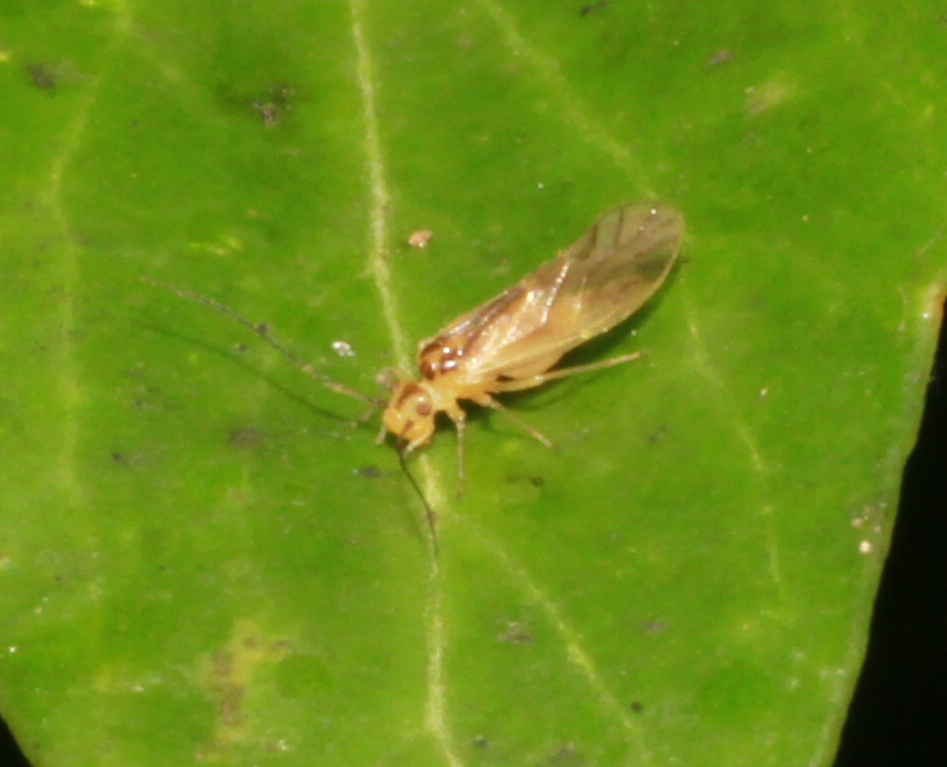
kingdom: Animalia
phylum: Arthropoda
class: Insecta
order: Psocodea
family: Caeciliusidae
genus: Valenzuela
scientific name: Valenzuela flavidus
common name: Yellow barklouse
